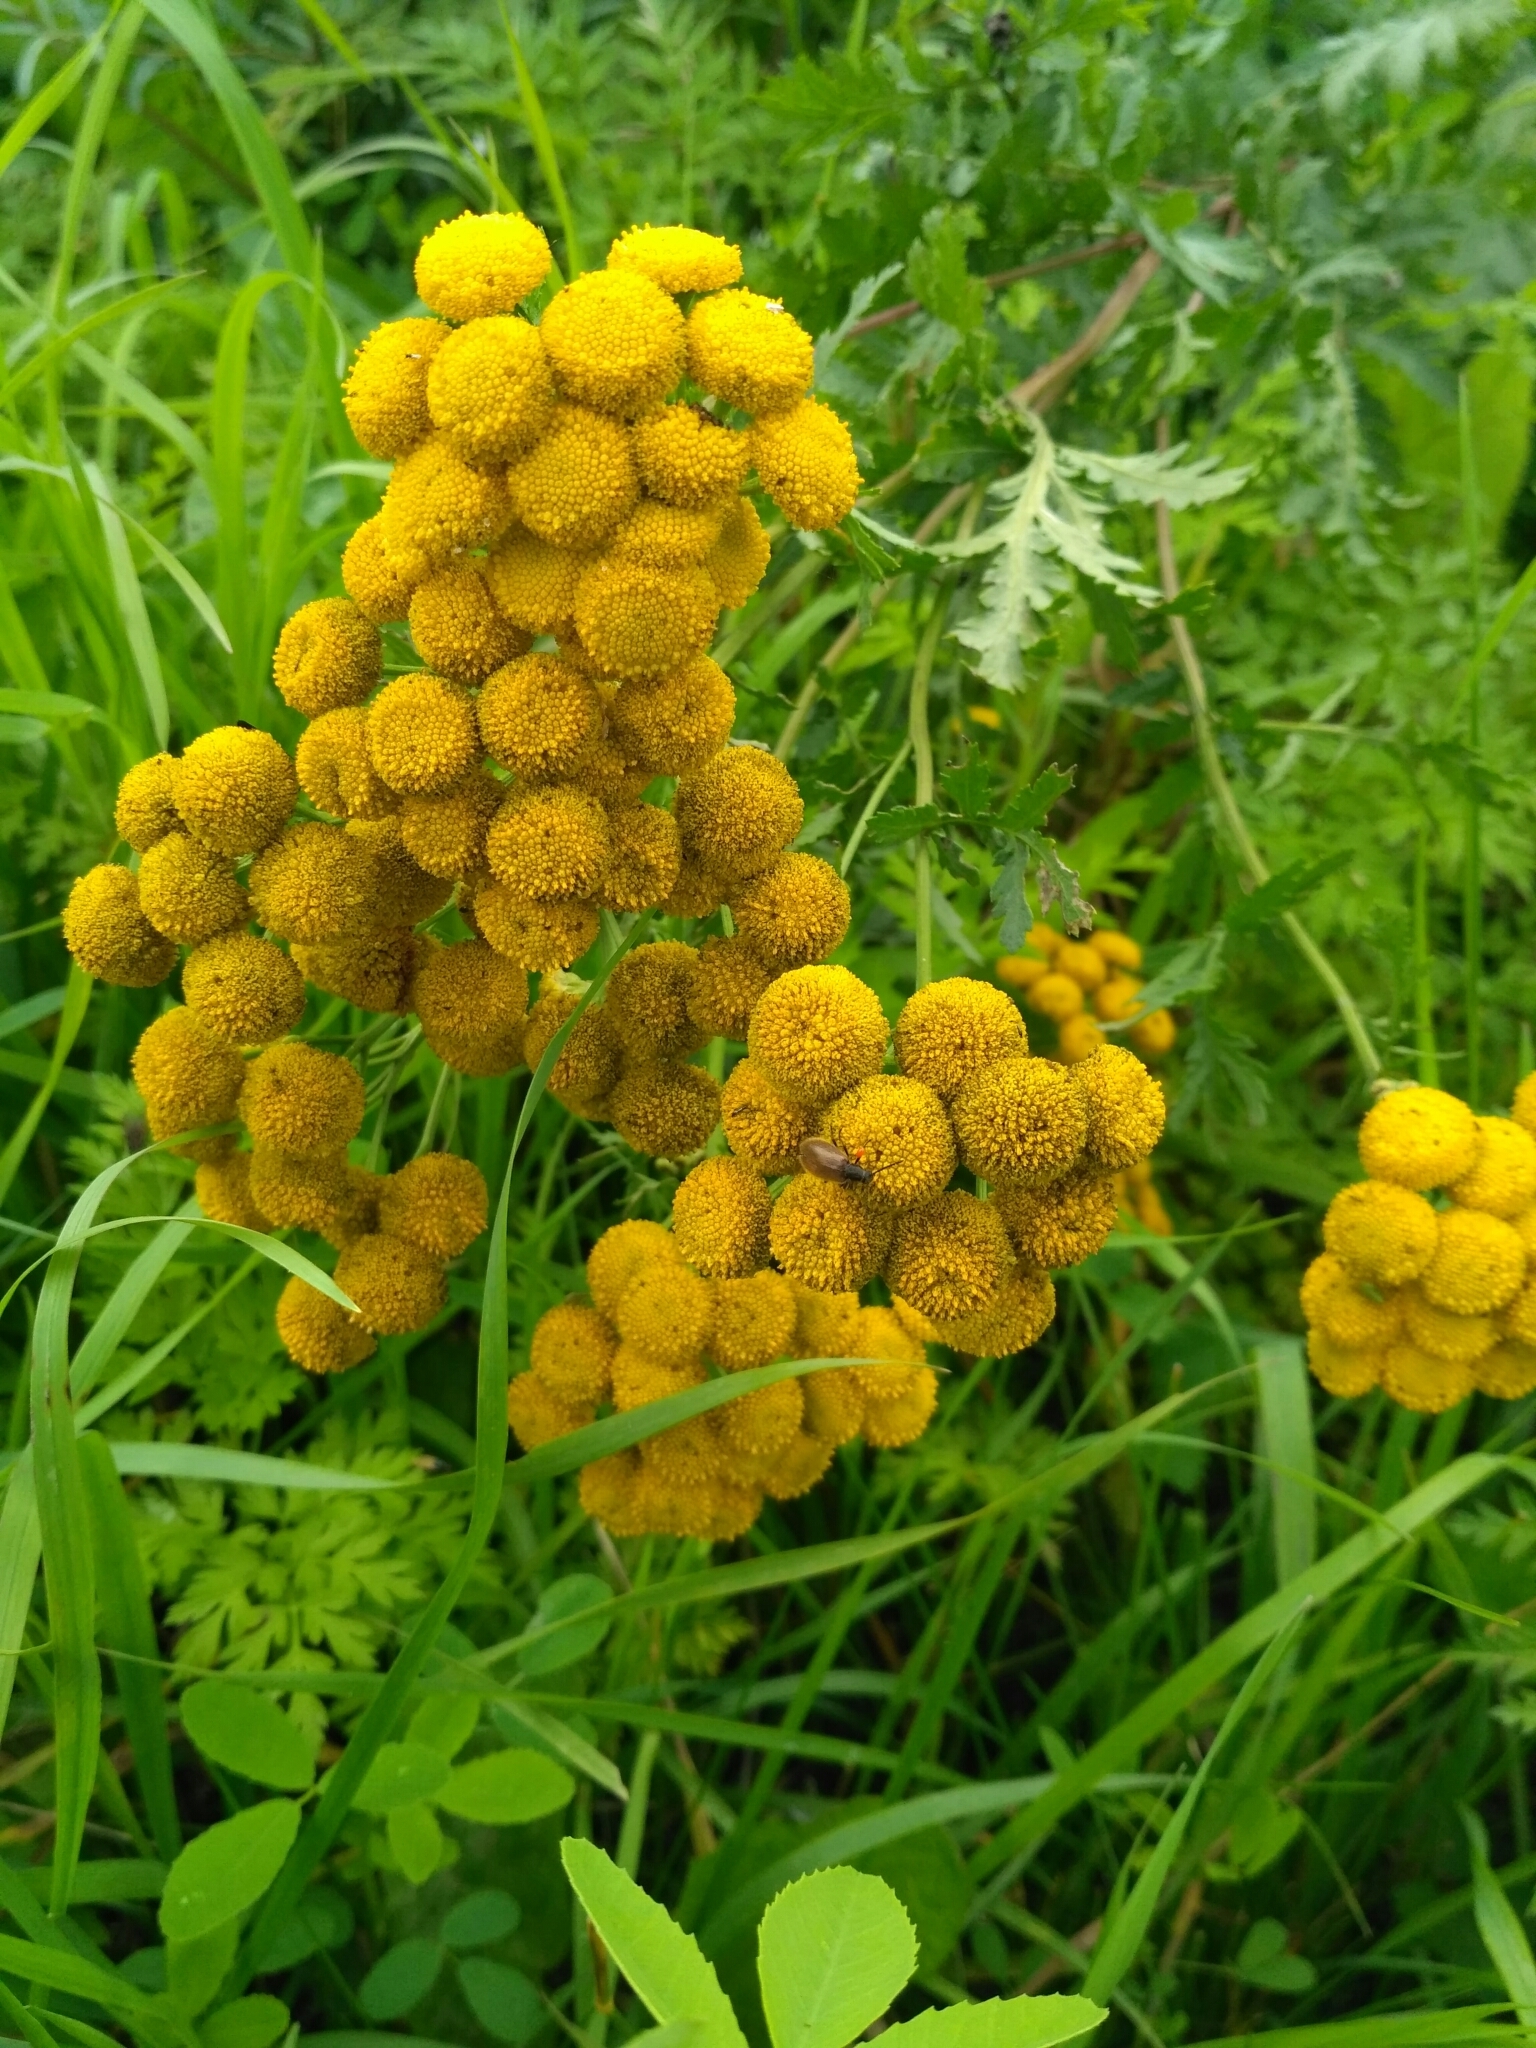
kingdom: Plantae
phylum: Tracheophyta
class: Magnoliopsida
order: Asterales
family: Asteraceae
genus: Tanacetum
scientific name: Tanacetum vulgare
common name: Common tansy
